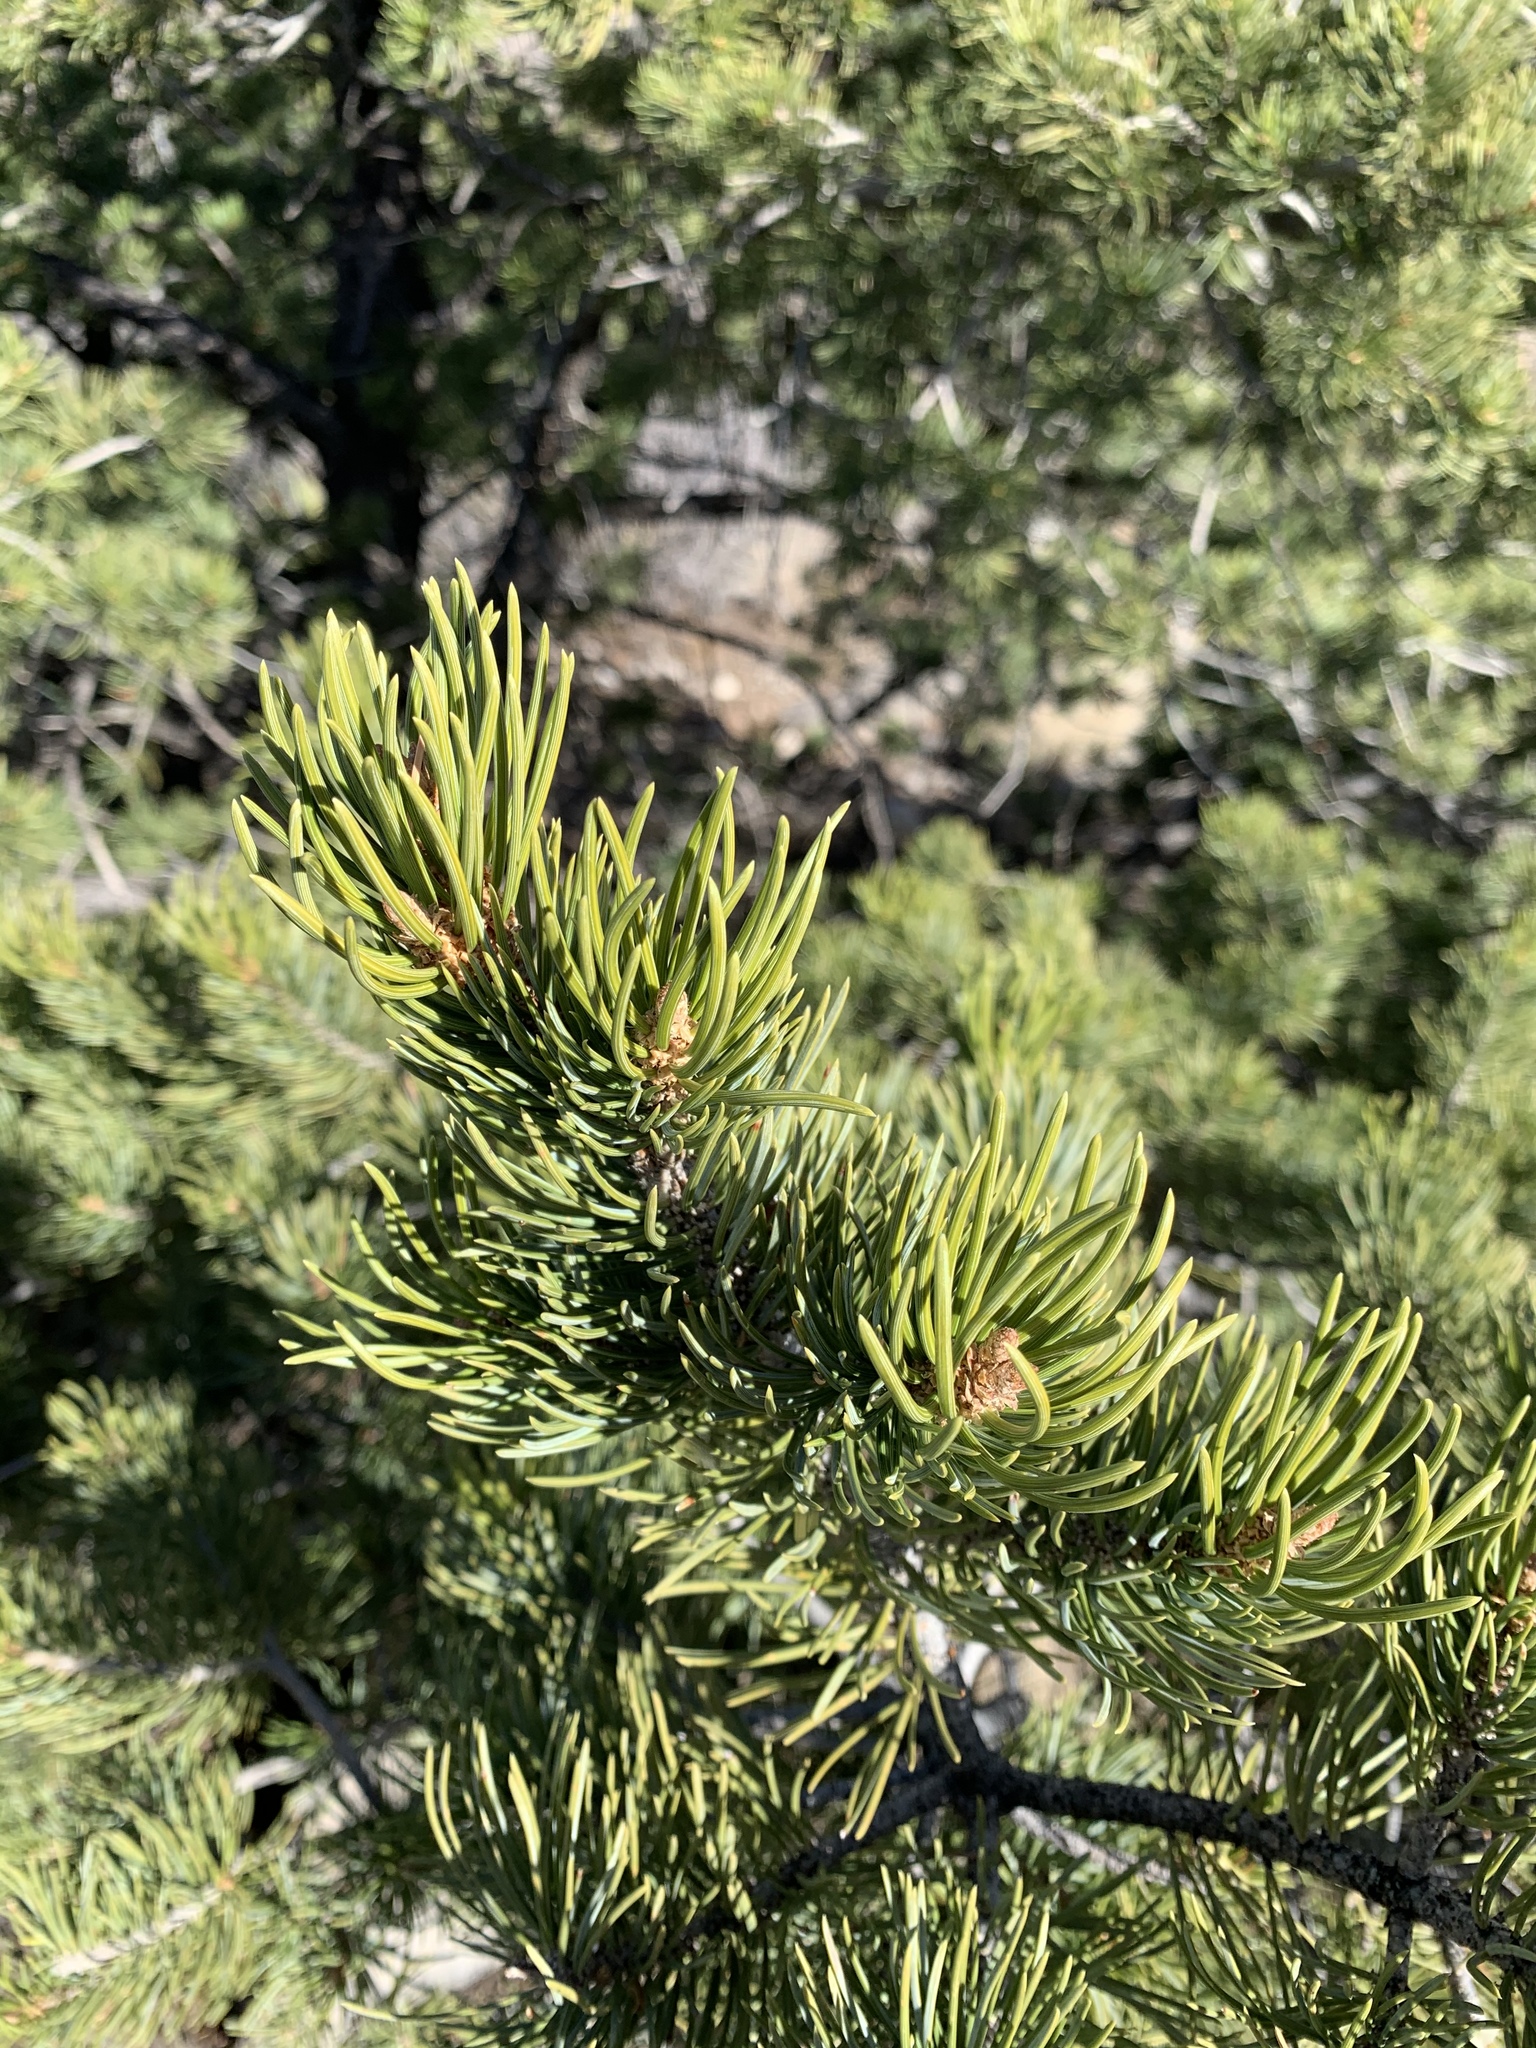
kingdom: Plantae
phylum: Tracheophyta
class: Pinopsida
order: Pinales
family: Pinaceae
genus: Pinus
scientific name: Pinus edulis
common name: Colorado pinyon
